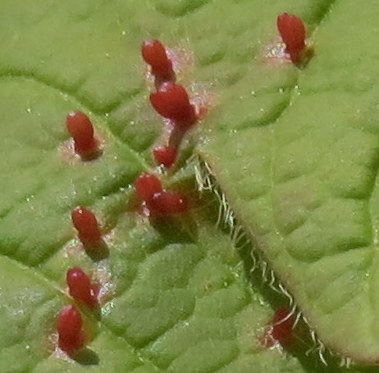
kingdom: Animalia
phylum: Arthropoda
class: Arachnida
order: Trombidiformes
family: Eriophyidae
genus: Vasates
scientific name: Vasates quadripedes
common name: Maple bladder gall mite
